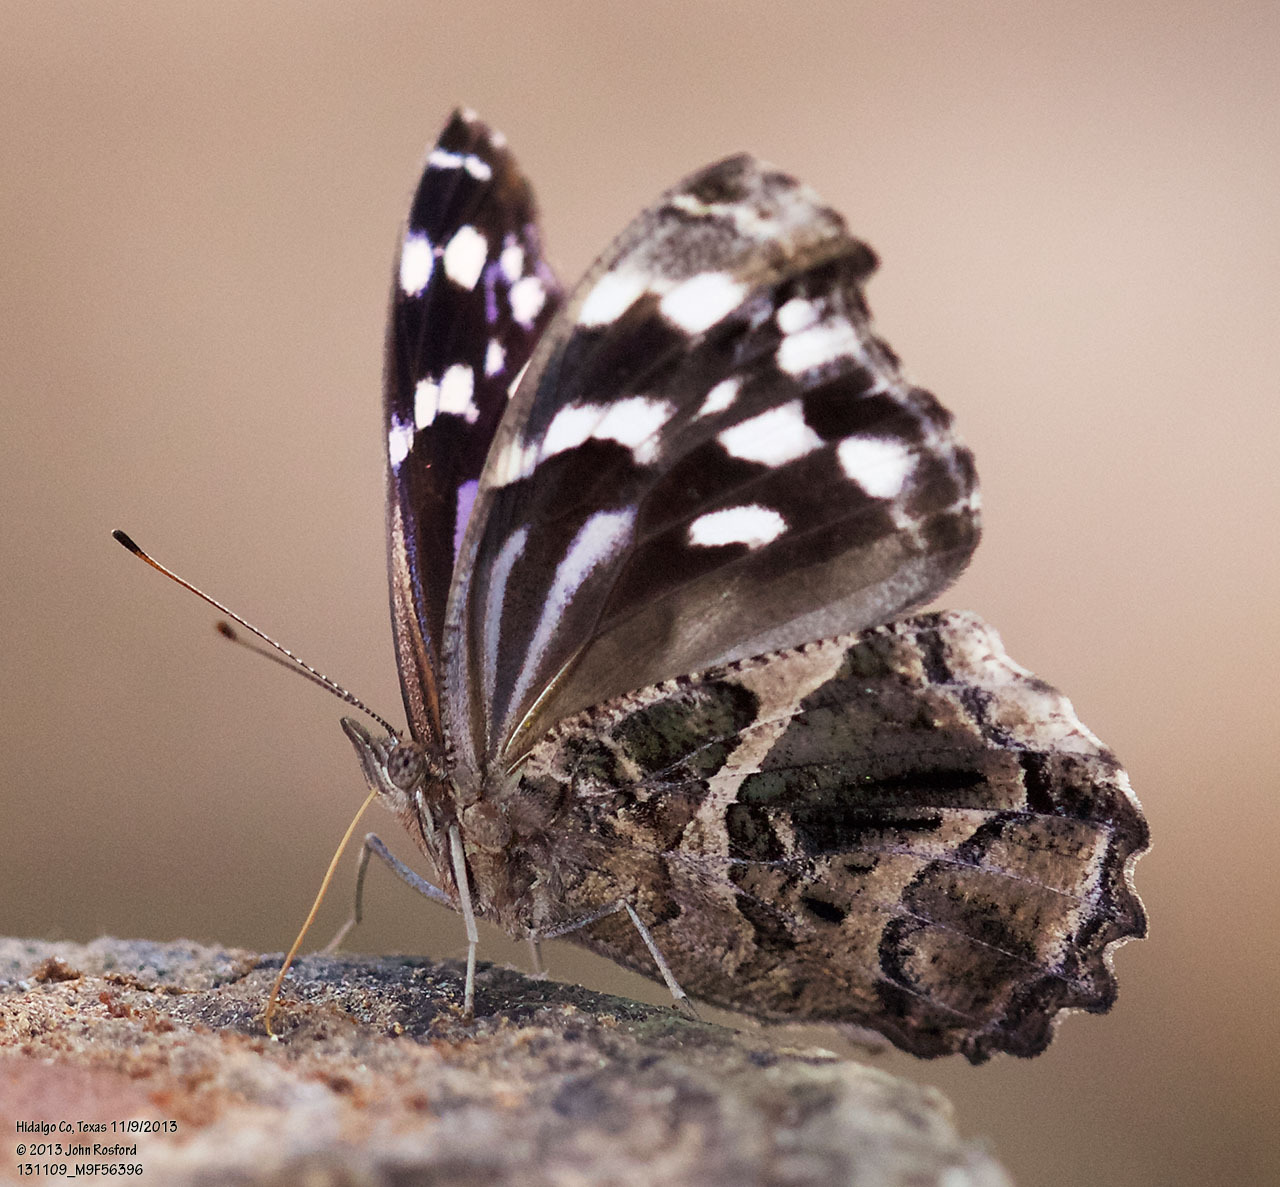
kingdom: Animalia
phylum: Arthropoda
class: Insecta
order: Lepidoptera
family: Nymphalidae
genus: Myscelia
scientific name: Myscelia ethusa
